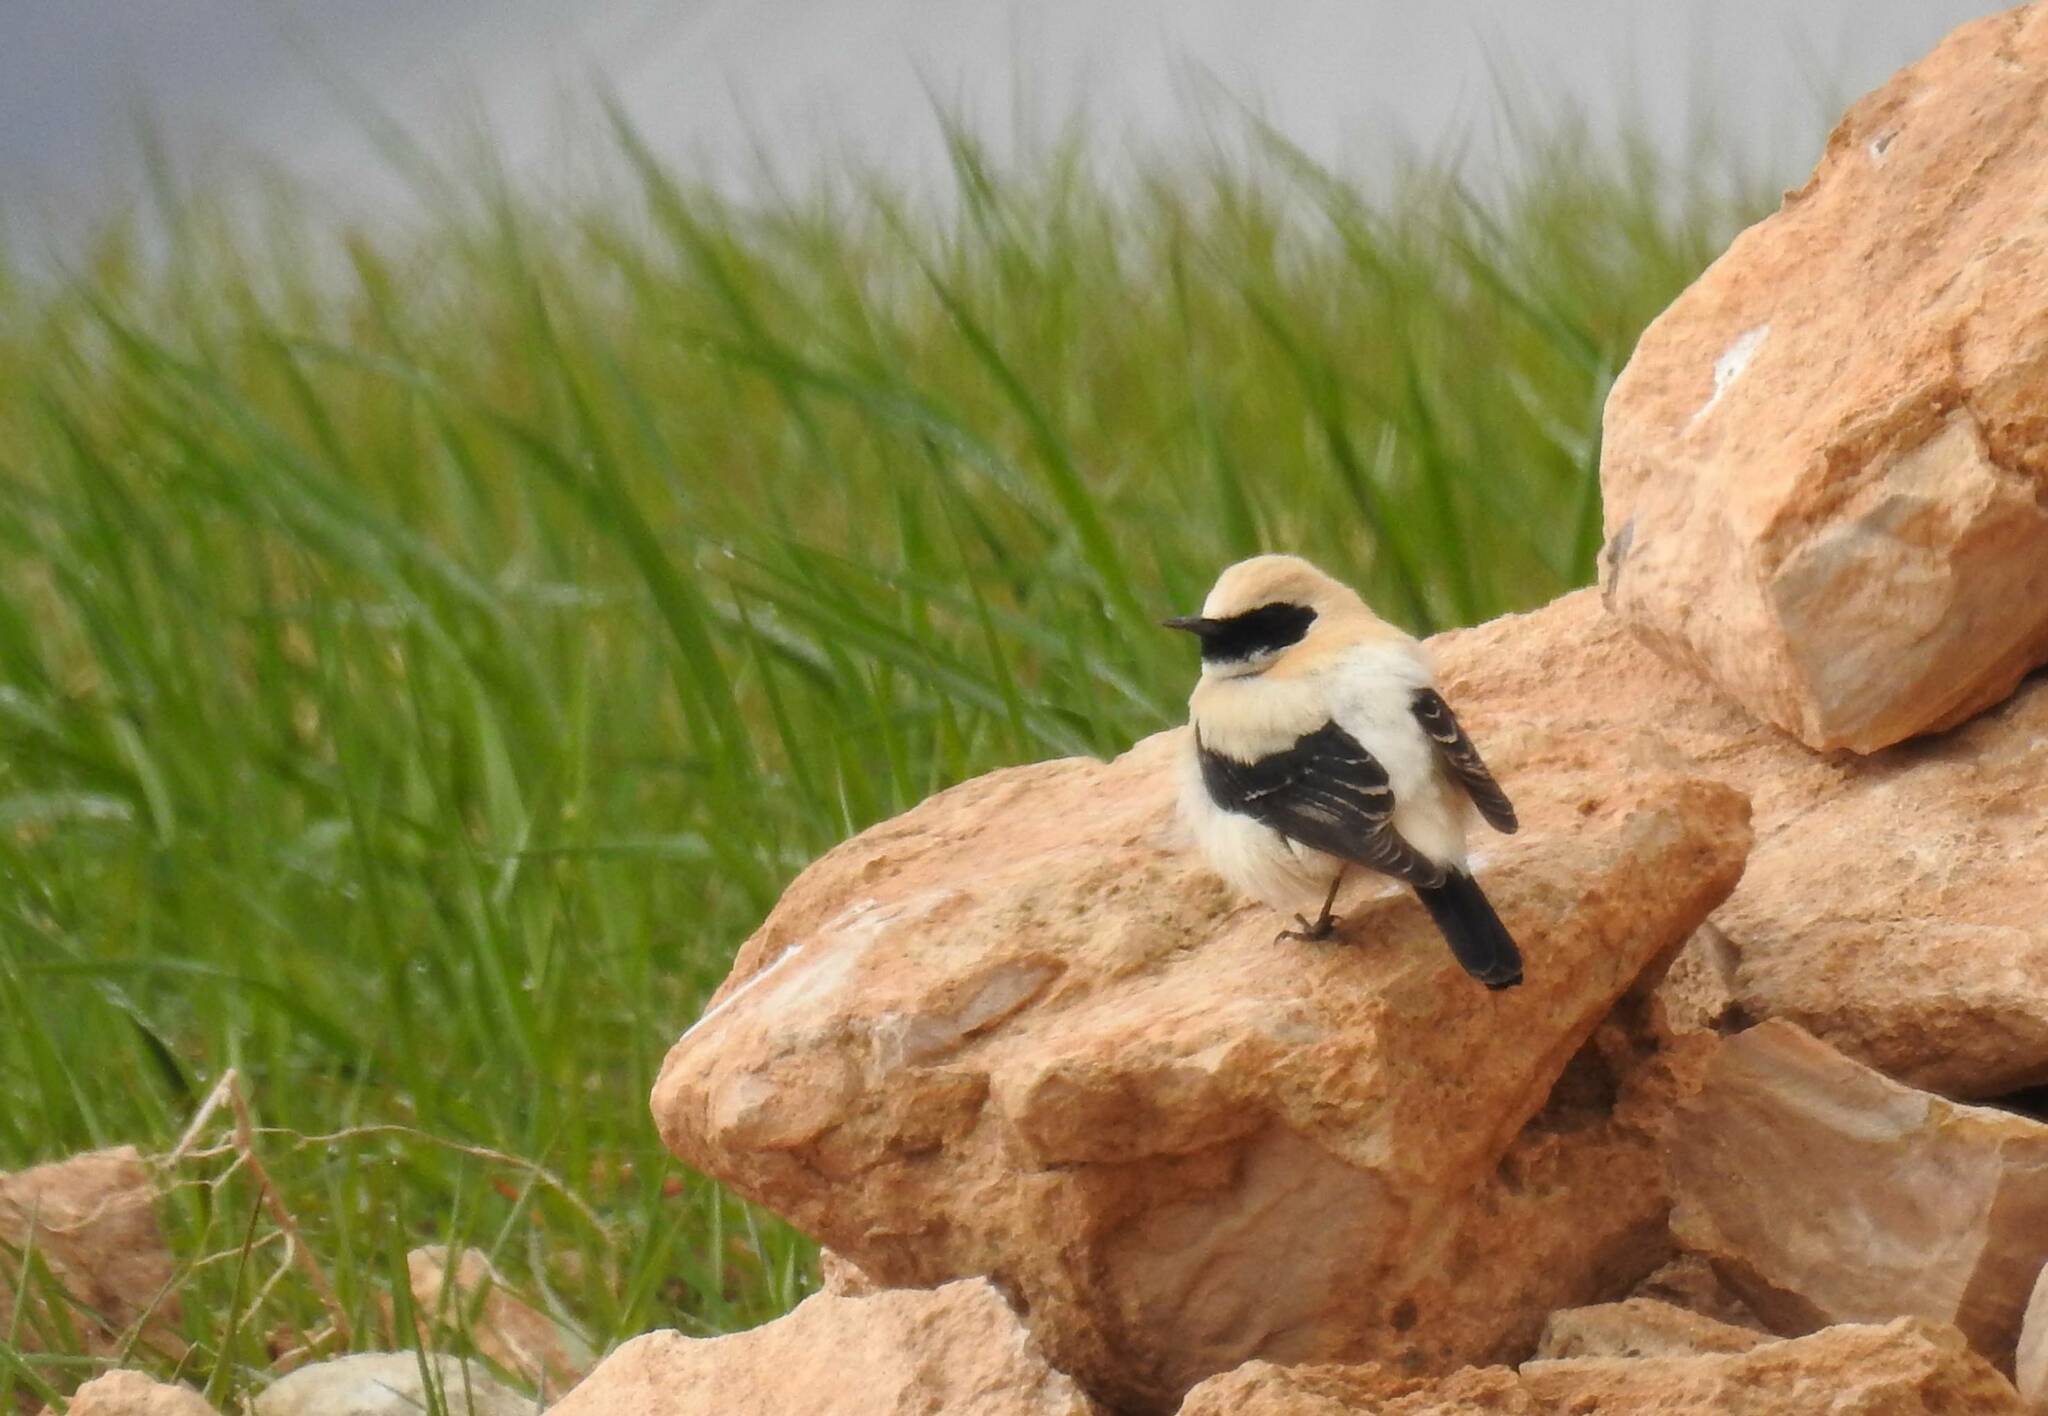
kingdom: Animalia
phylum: Chordata
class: Aves
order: Passeriformes
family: Muscicapidae
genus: Oenanthe
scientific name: Oenanthe hispanica
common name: Black-eared wheatear
